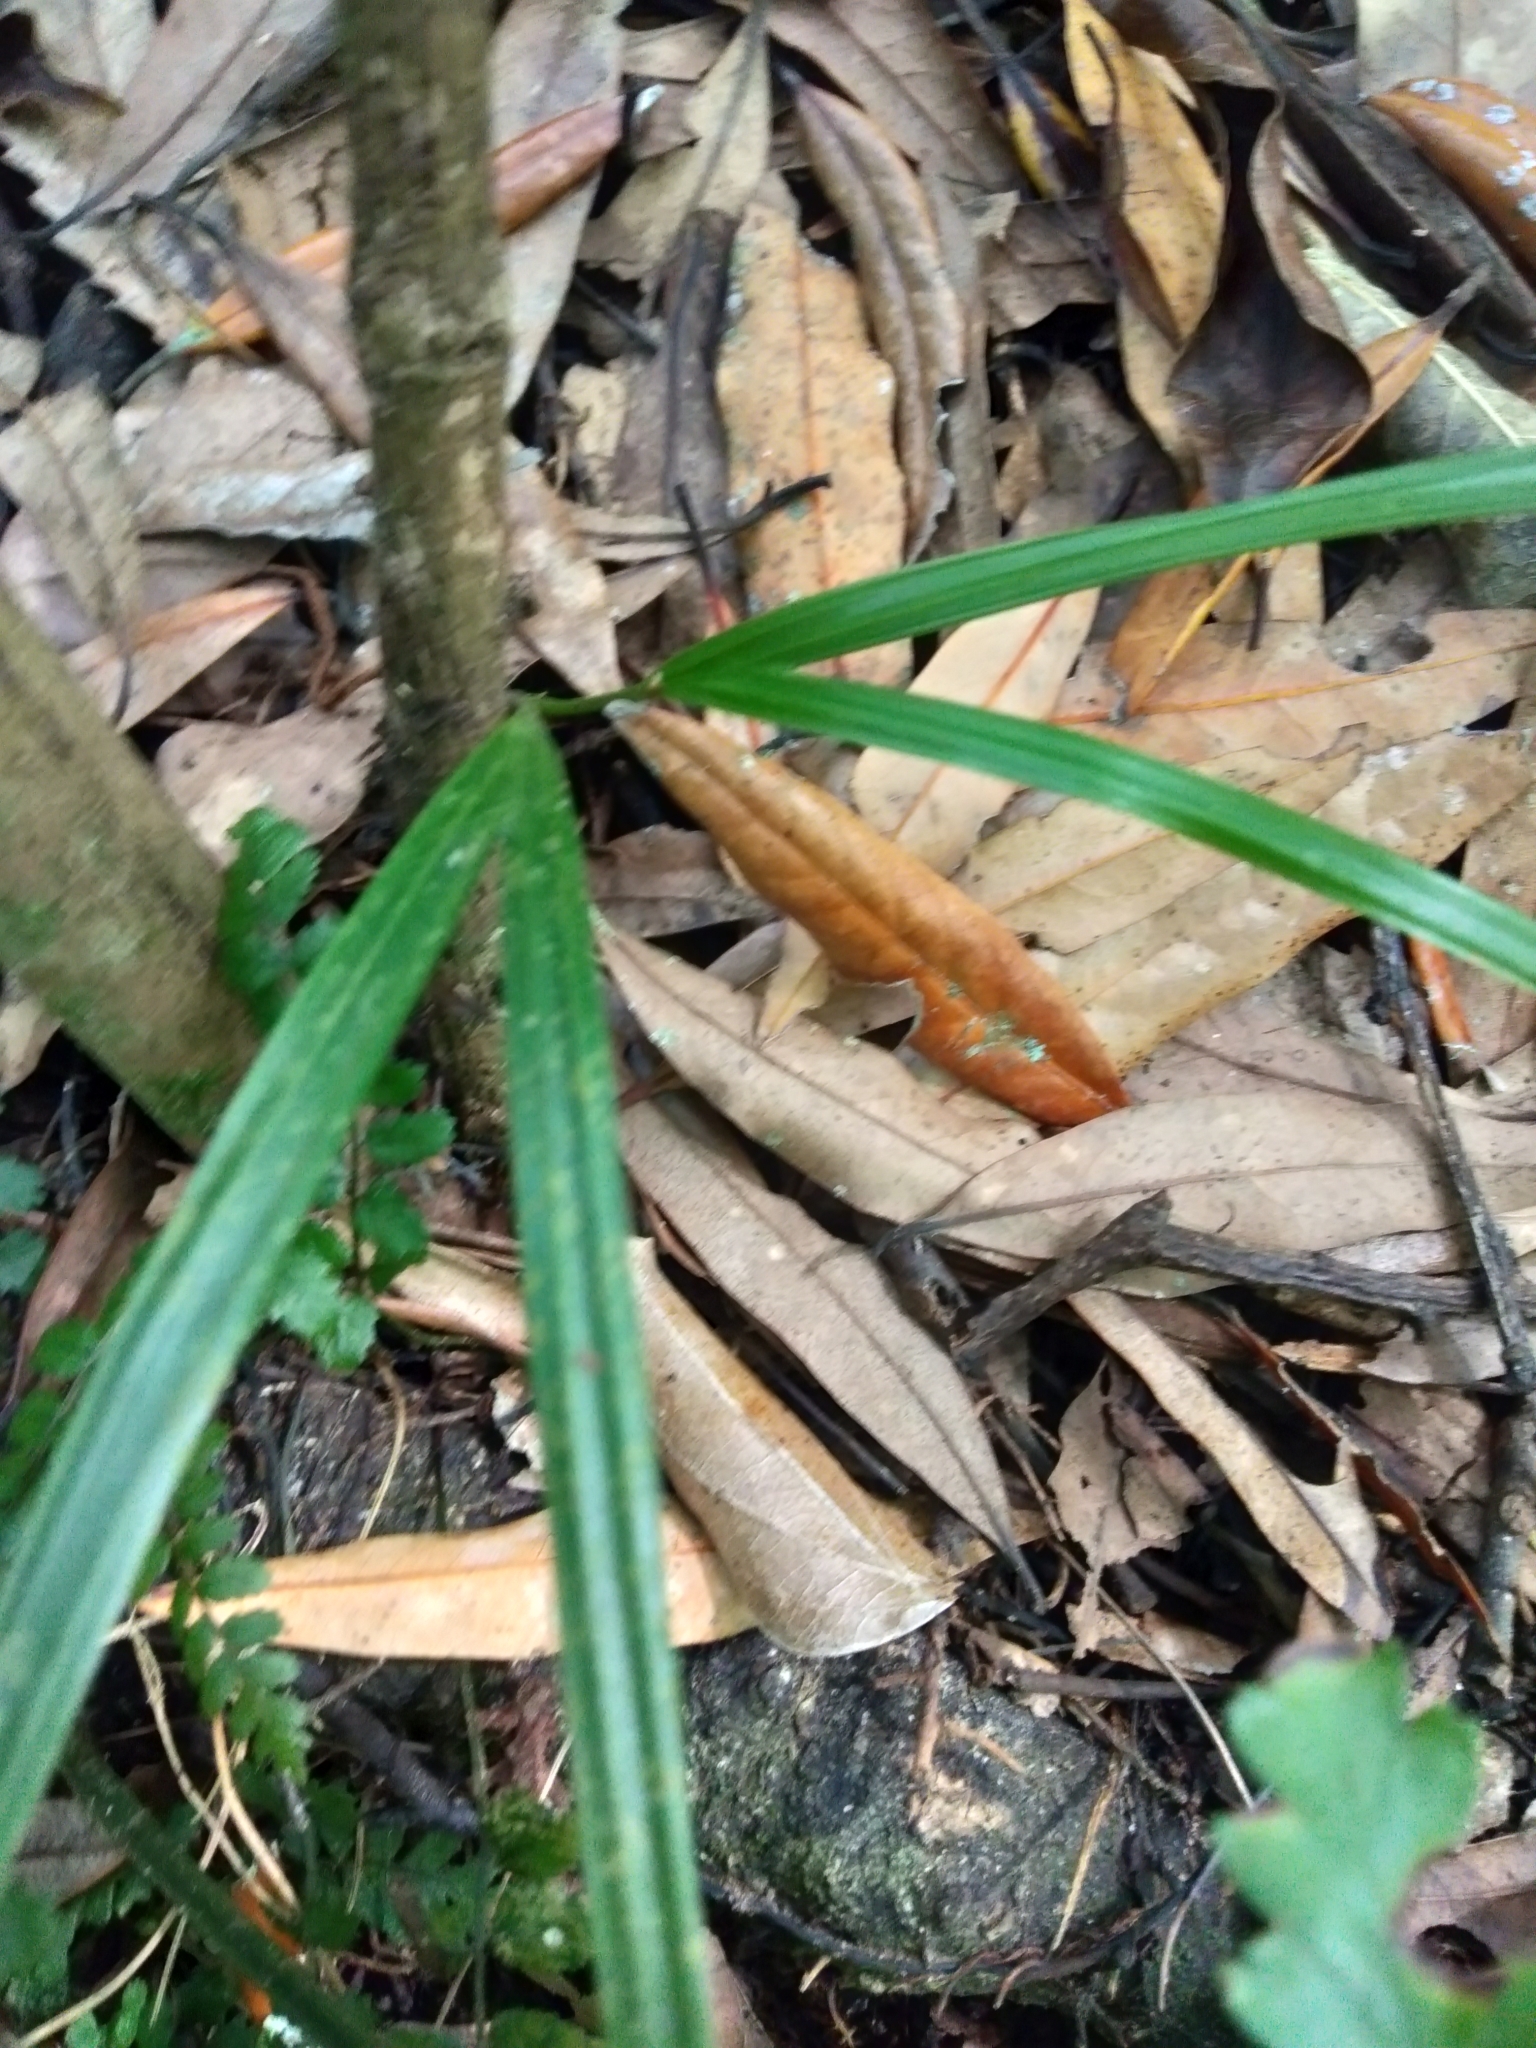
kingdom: Plantae
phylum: Tracheophyta
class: Liliopsida
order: Arecales
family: Arecaceae
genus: Rhopalostylis
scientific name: Rhopalostylis sapida
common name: Feather-duster palm
